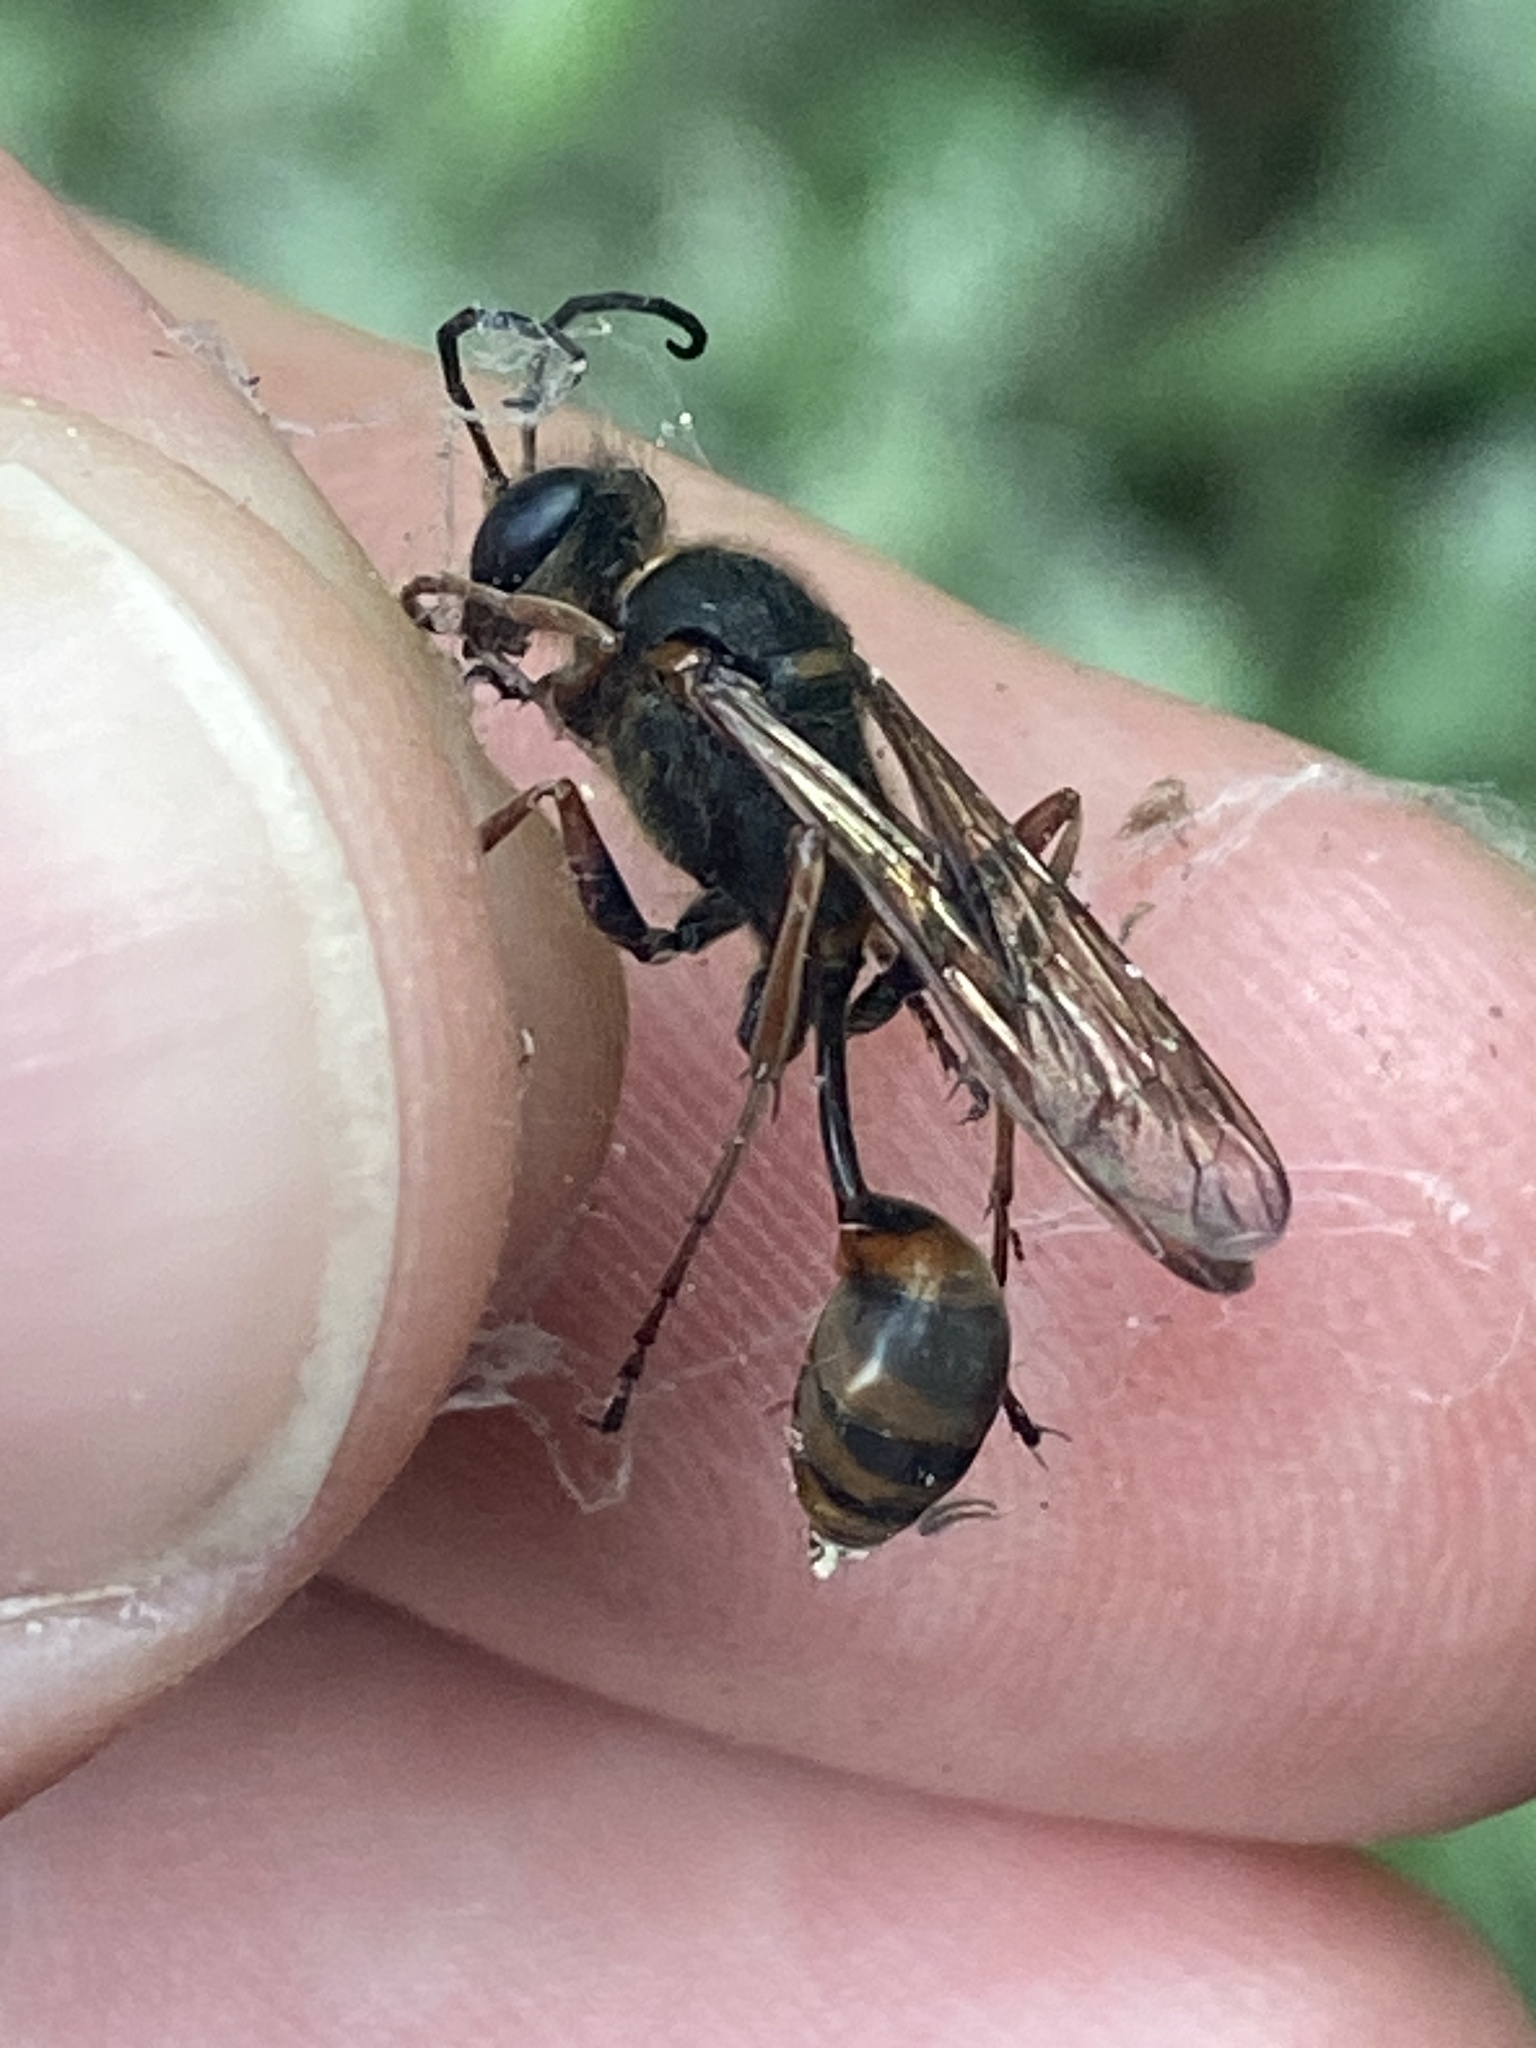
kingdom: Animalia
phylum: Arthropoda
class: Insecta
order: Hymenoptera
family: Sphecidae
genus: Sceliphron
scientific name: Sceliphron curvatum
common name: Pèlopèe
